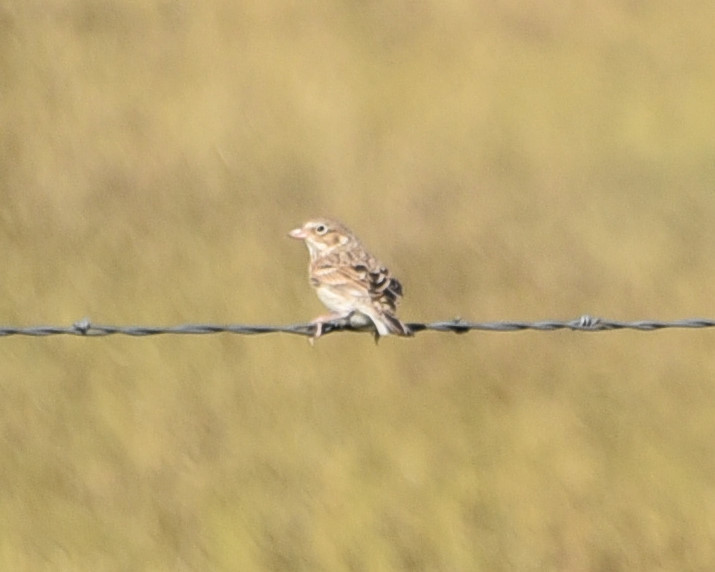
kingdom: Animalia
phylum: Chordata
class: Aves
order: Passeriformes
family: Passerellidae
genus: Pooecetes
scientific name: Pooecetes gramineus
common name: Vesper sparrow
